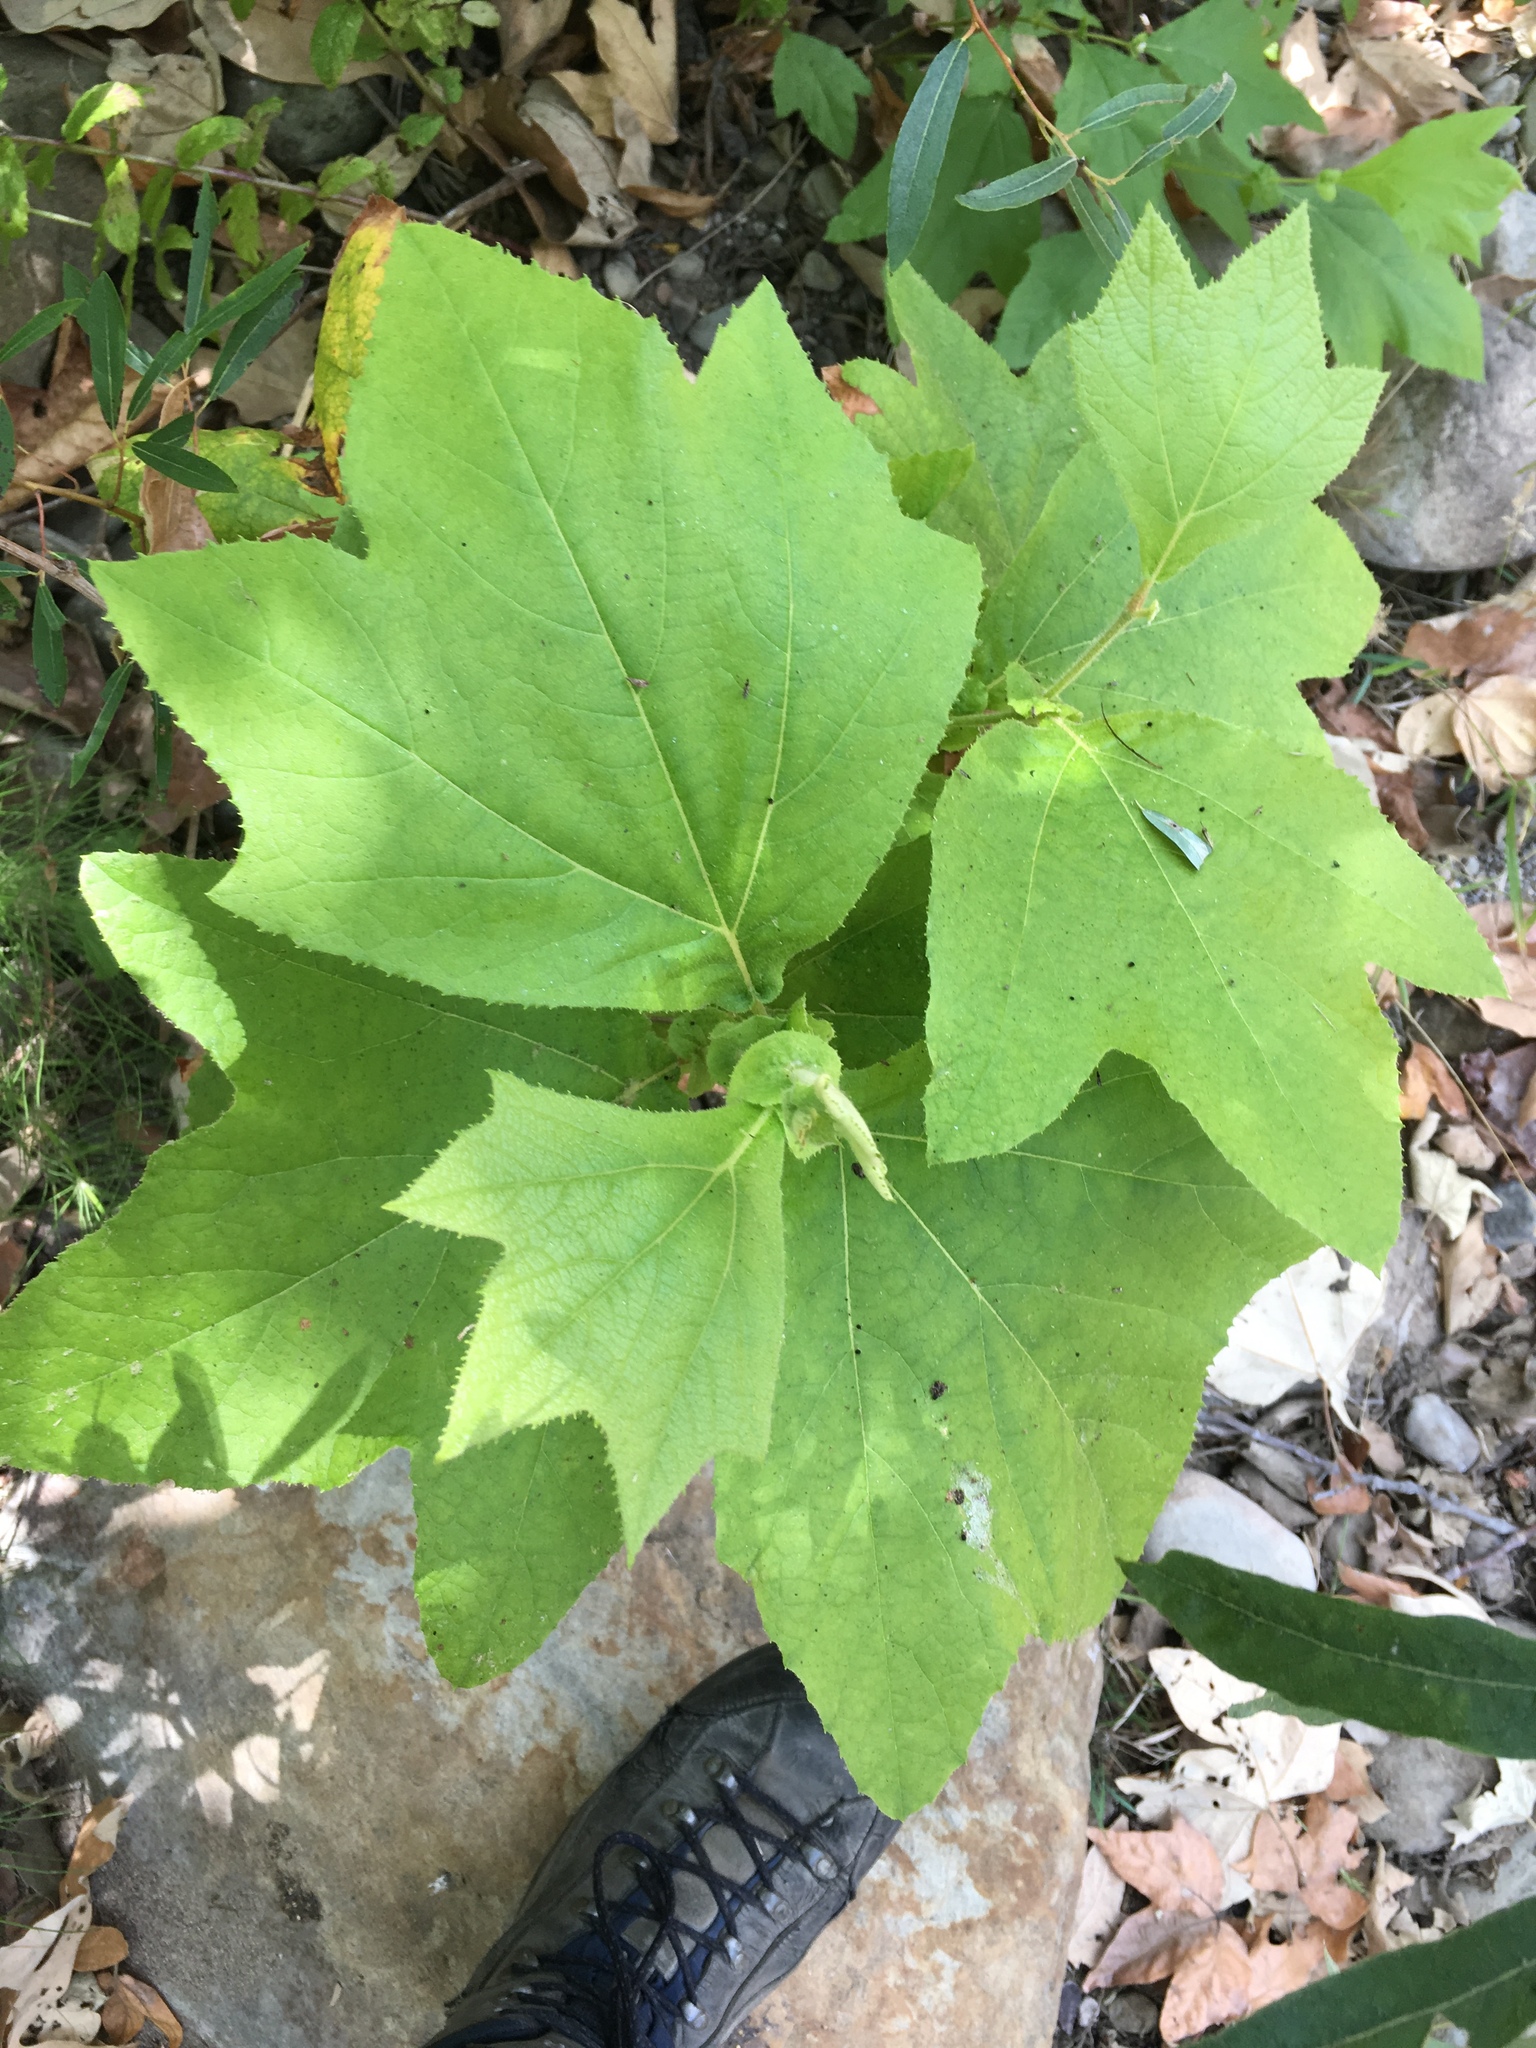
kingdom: Plantae
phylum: Tracheophyta
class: Magnoliopsida
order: Proteales
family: Platanaceae
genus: Platanus
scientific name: Platanus racemosa
